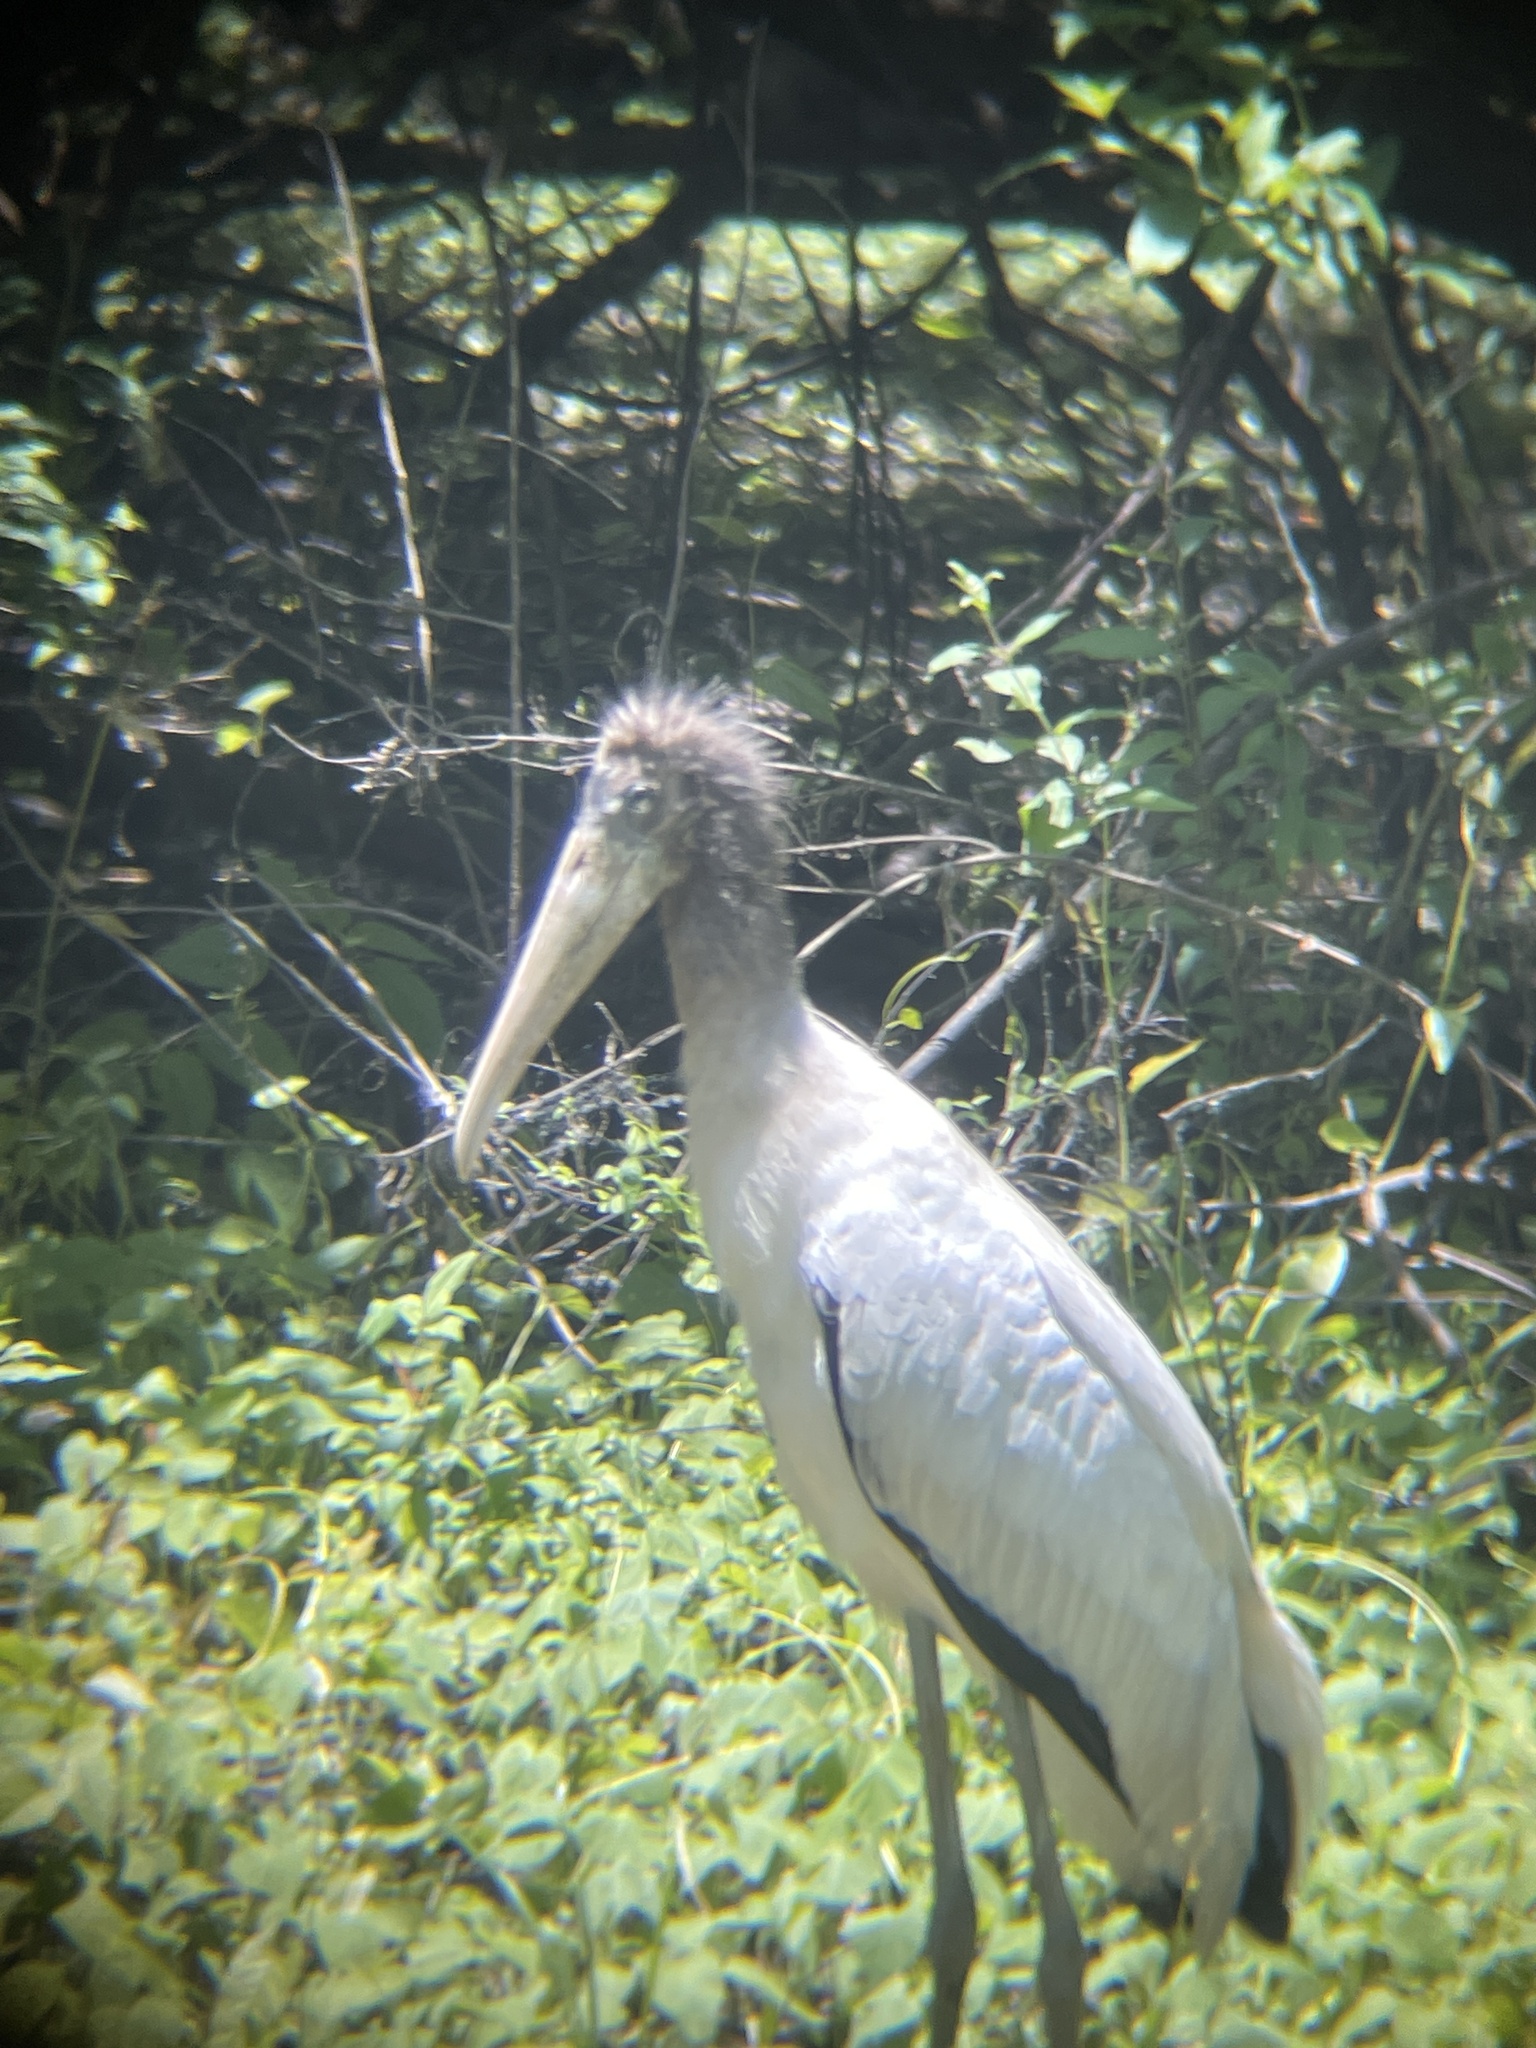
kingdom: Animalia
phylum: Chordata
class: Aves
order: Ciconiiformes
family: Ciconiidae
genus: Mycteria
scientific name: Mycteria americana
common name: Wood stork
